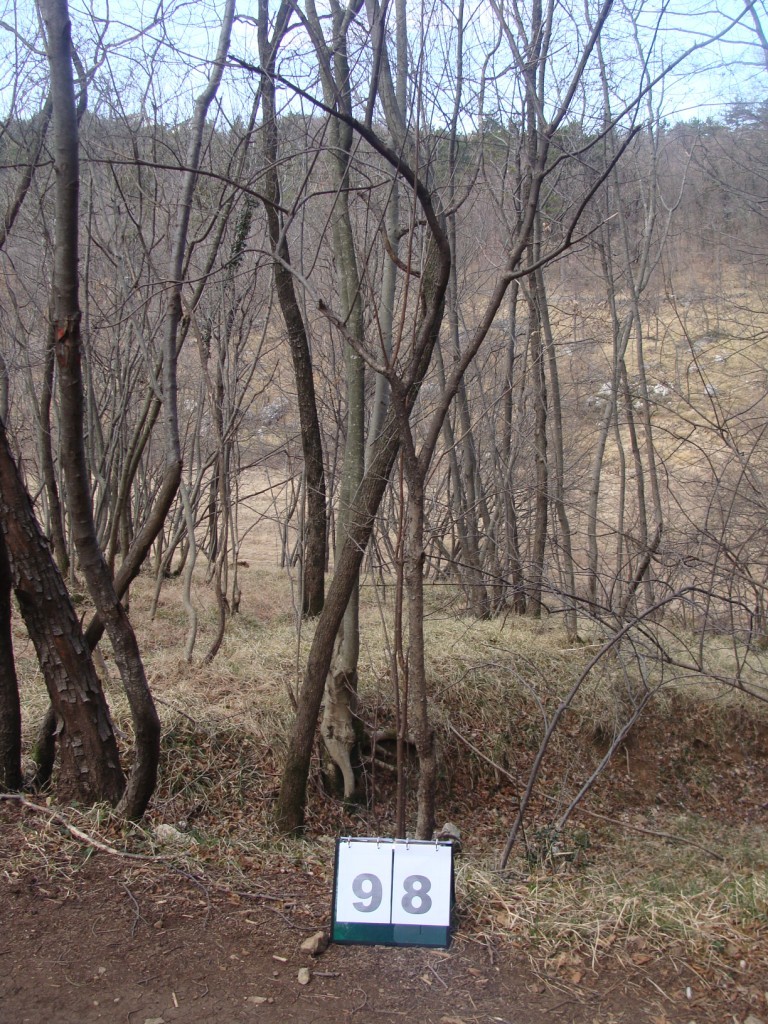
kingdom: Plantae
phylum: Tracheophyta
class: Magnoliopsida
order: Cornales
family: Cornaceae
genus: Cornus
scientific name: Cornus mas
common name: Cornelian-cherry
